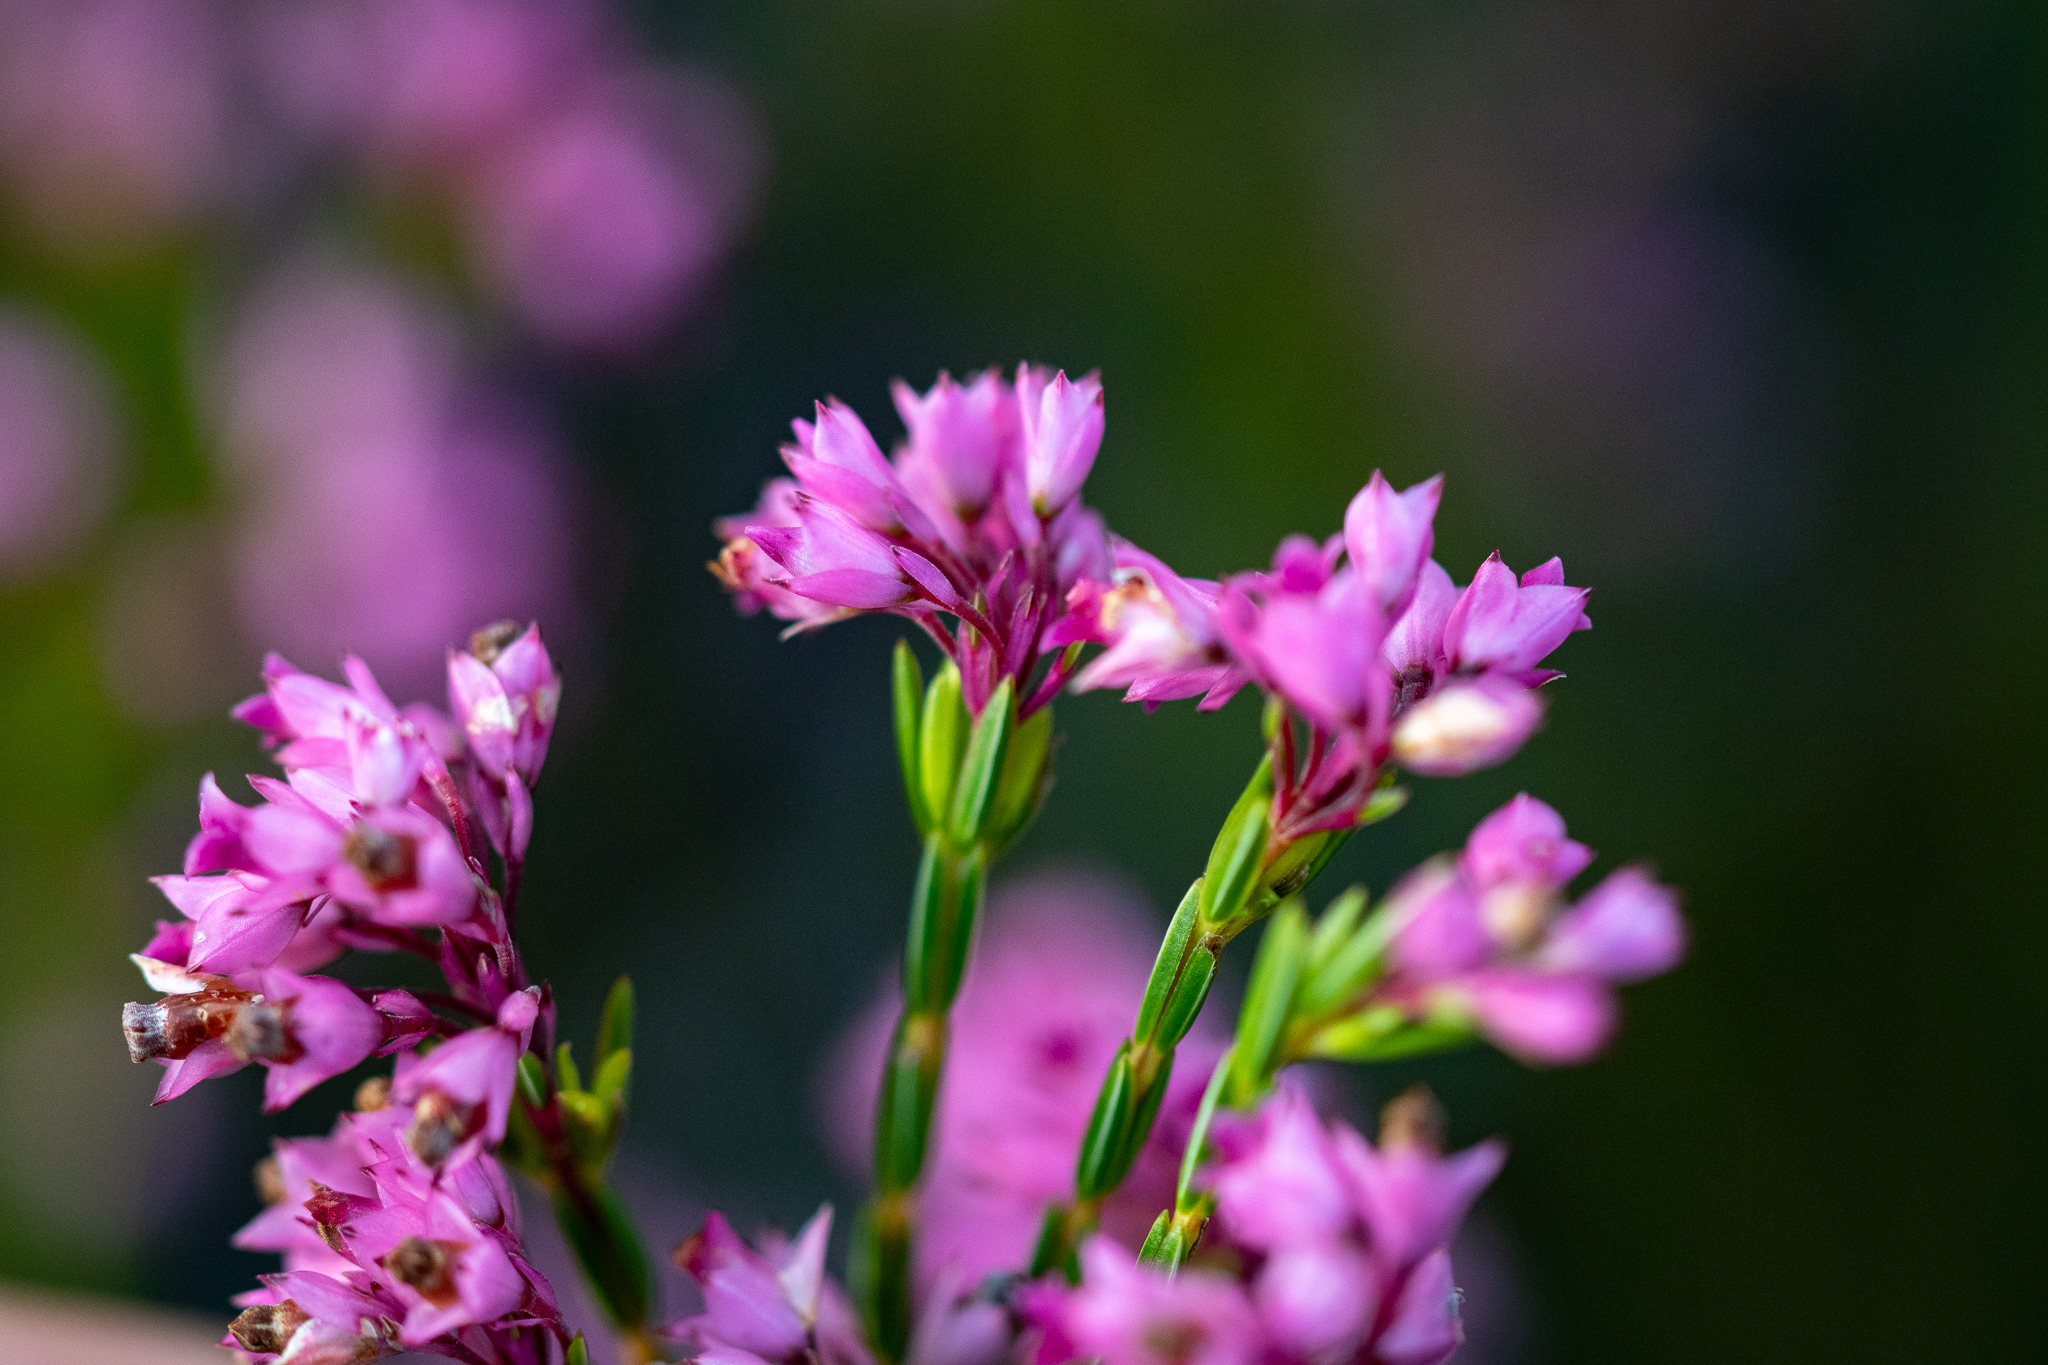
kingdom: Plantae
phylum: Tracheophyta
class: Magnoliopsida
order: Ericales
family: Ericaceae
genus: Erica
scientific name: Erica corifolia
